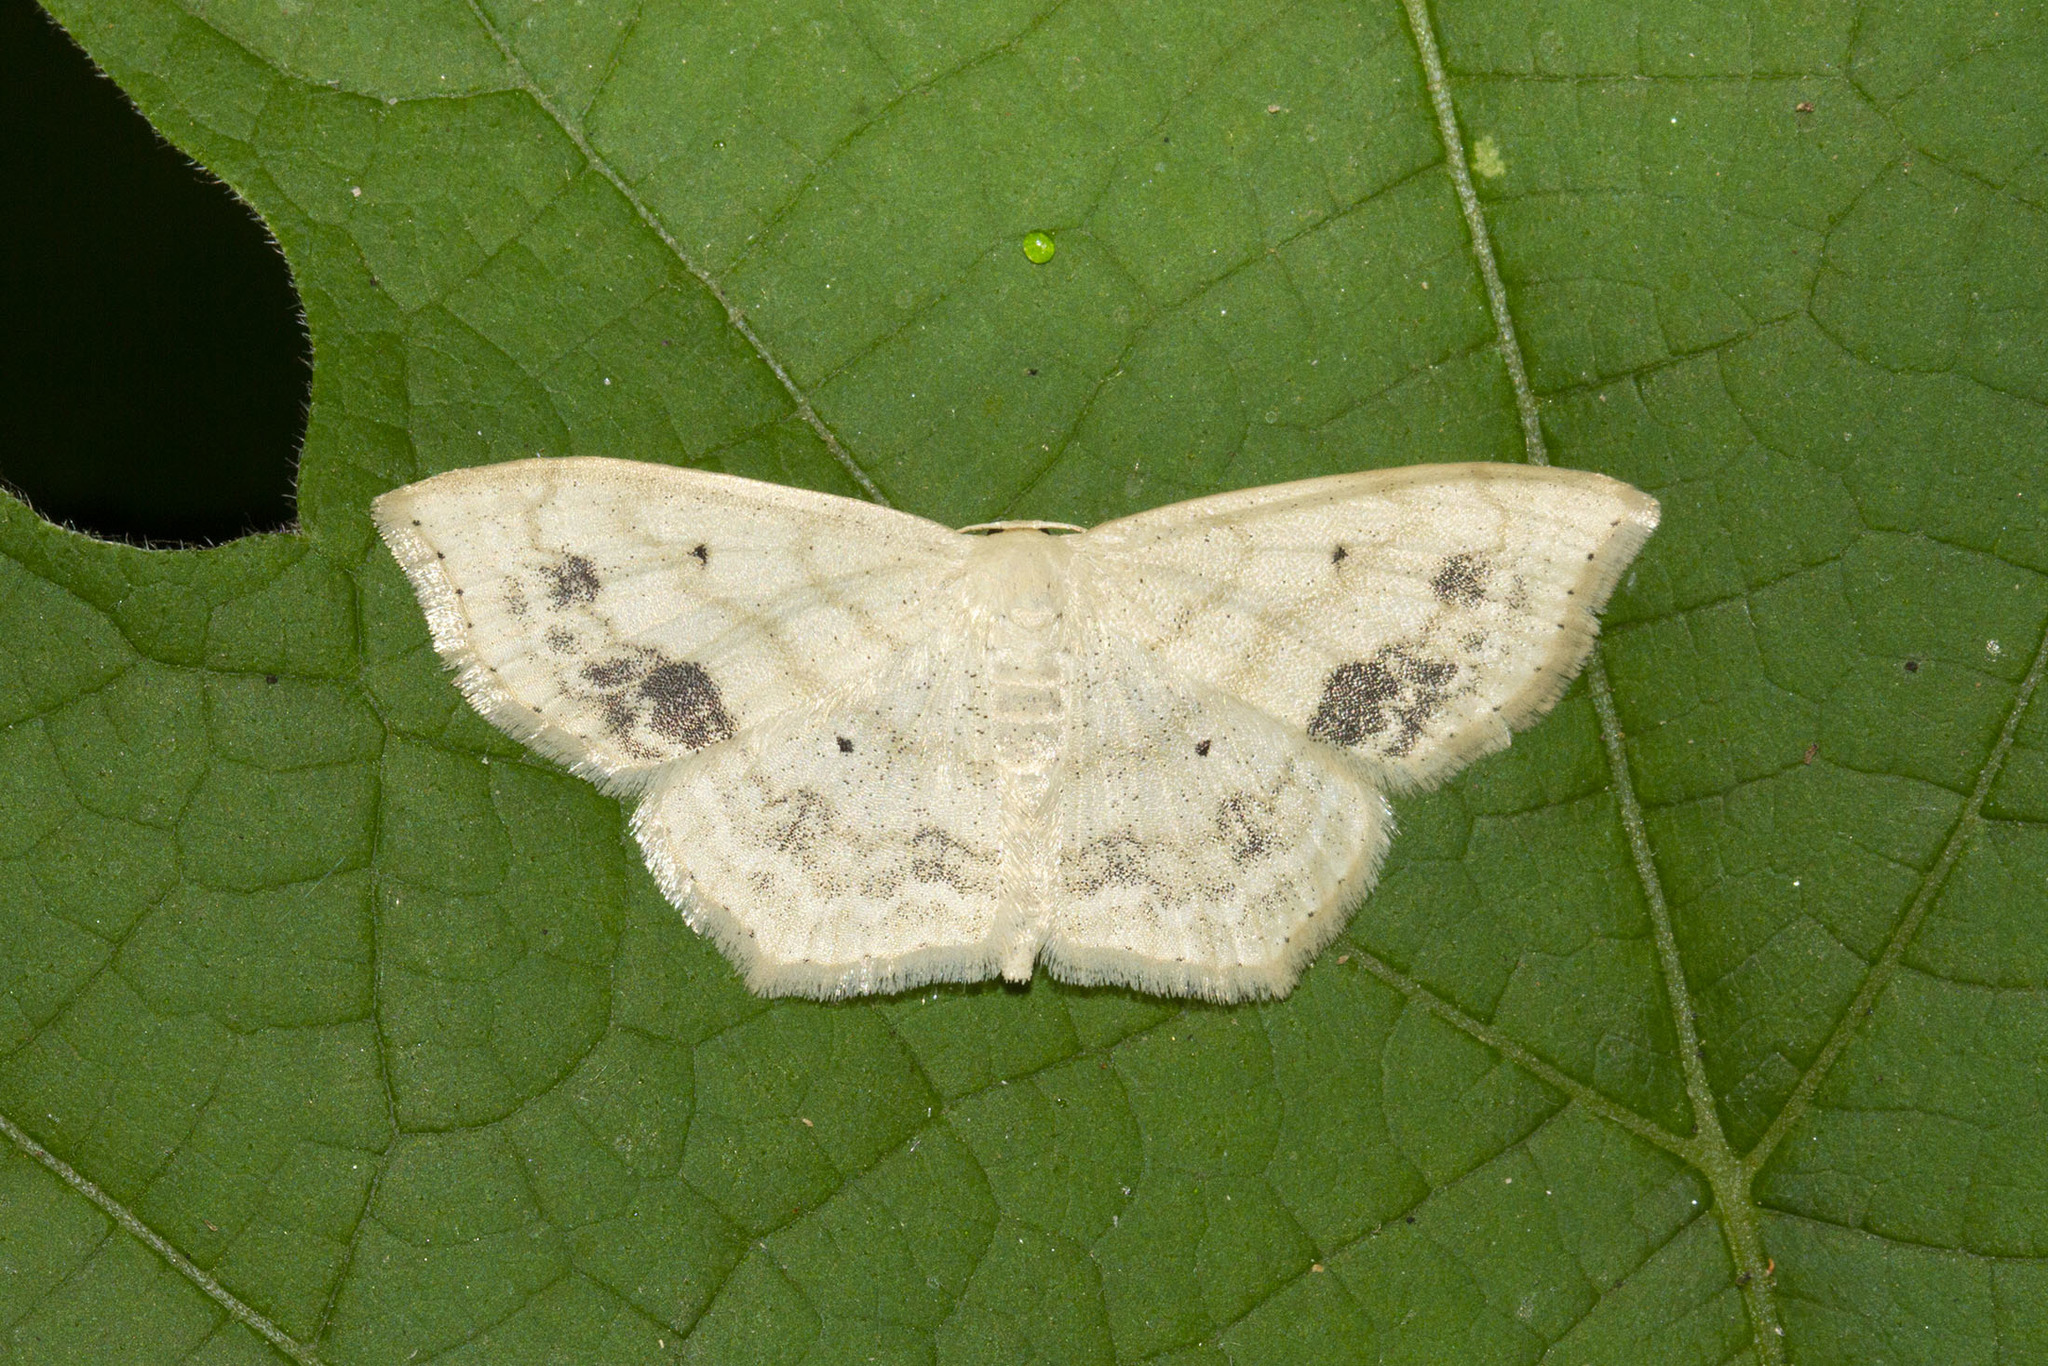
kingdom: Animalia
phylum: Arthropoda
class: Insecta
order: Lepidoptera
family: Geometridae
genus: Scopula
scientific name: Scopula limboundata
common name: Large lace border
